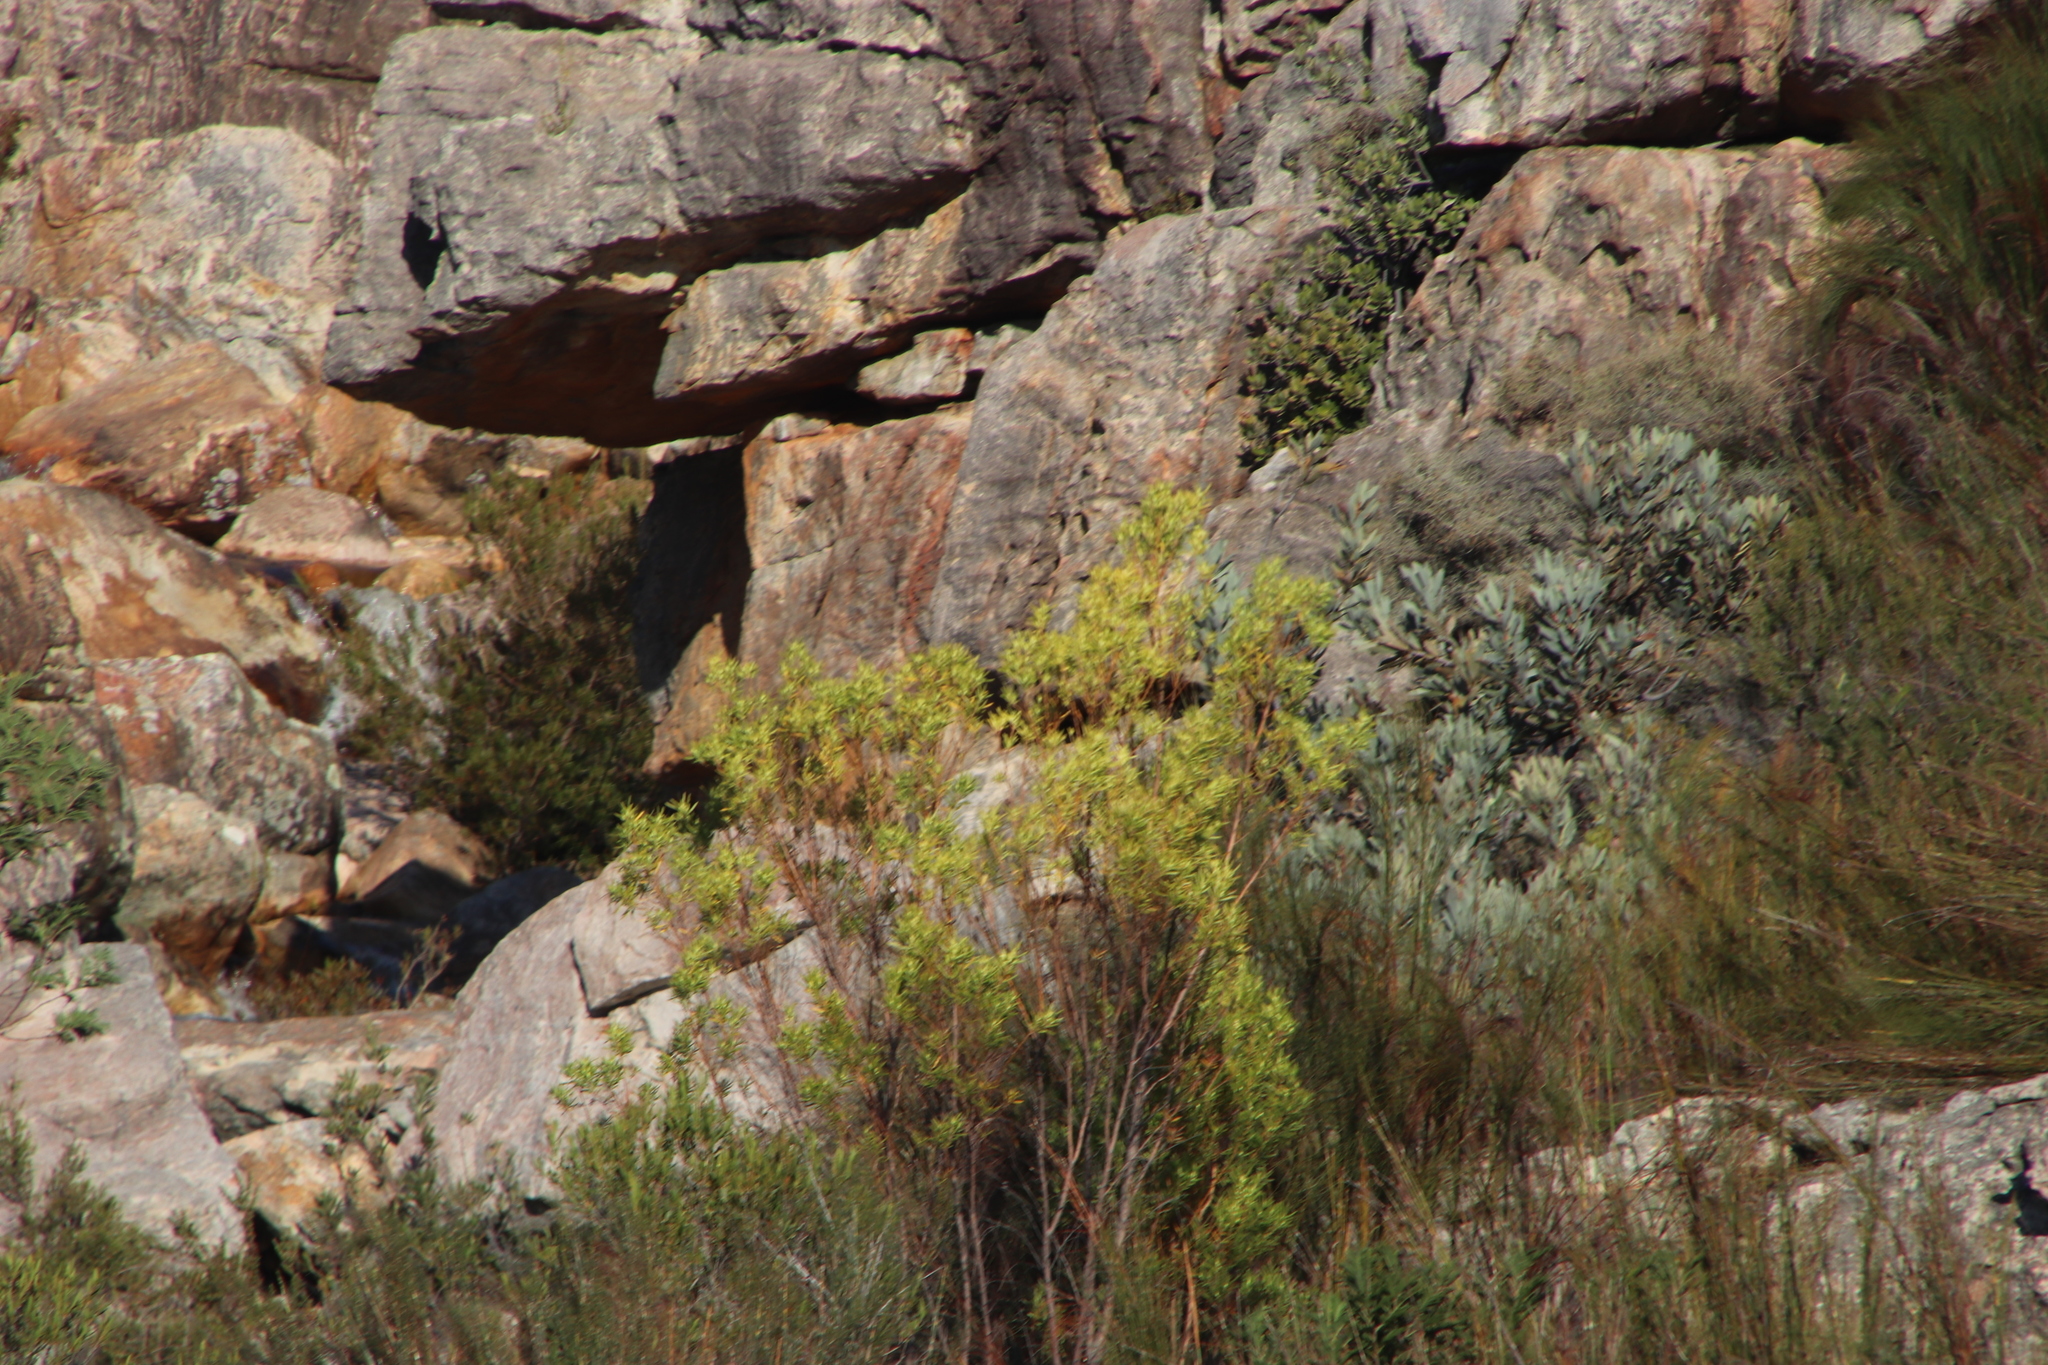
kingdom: Plantae
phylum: Tracheophyta
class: Magnoliopsida
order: Proteales
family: Proteaceae
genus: Leucadendron
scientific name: Leucadendron salicifolium
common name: Common stream conebush
